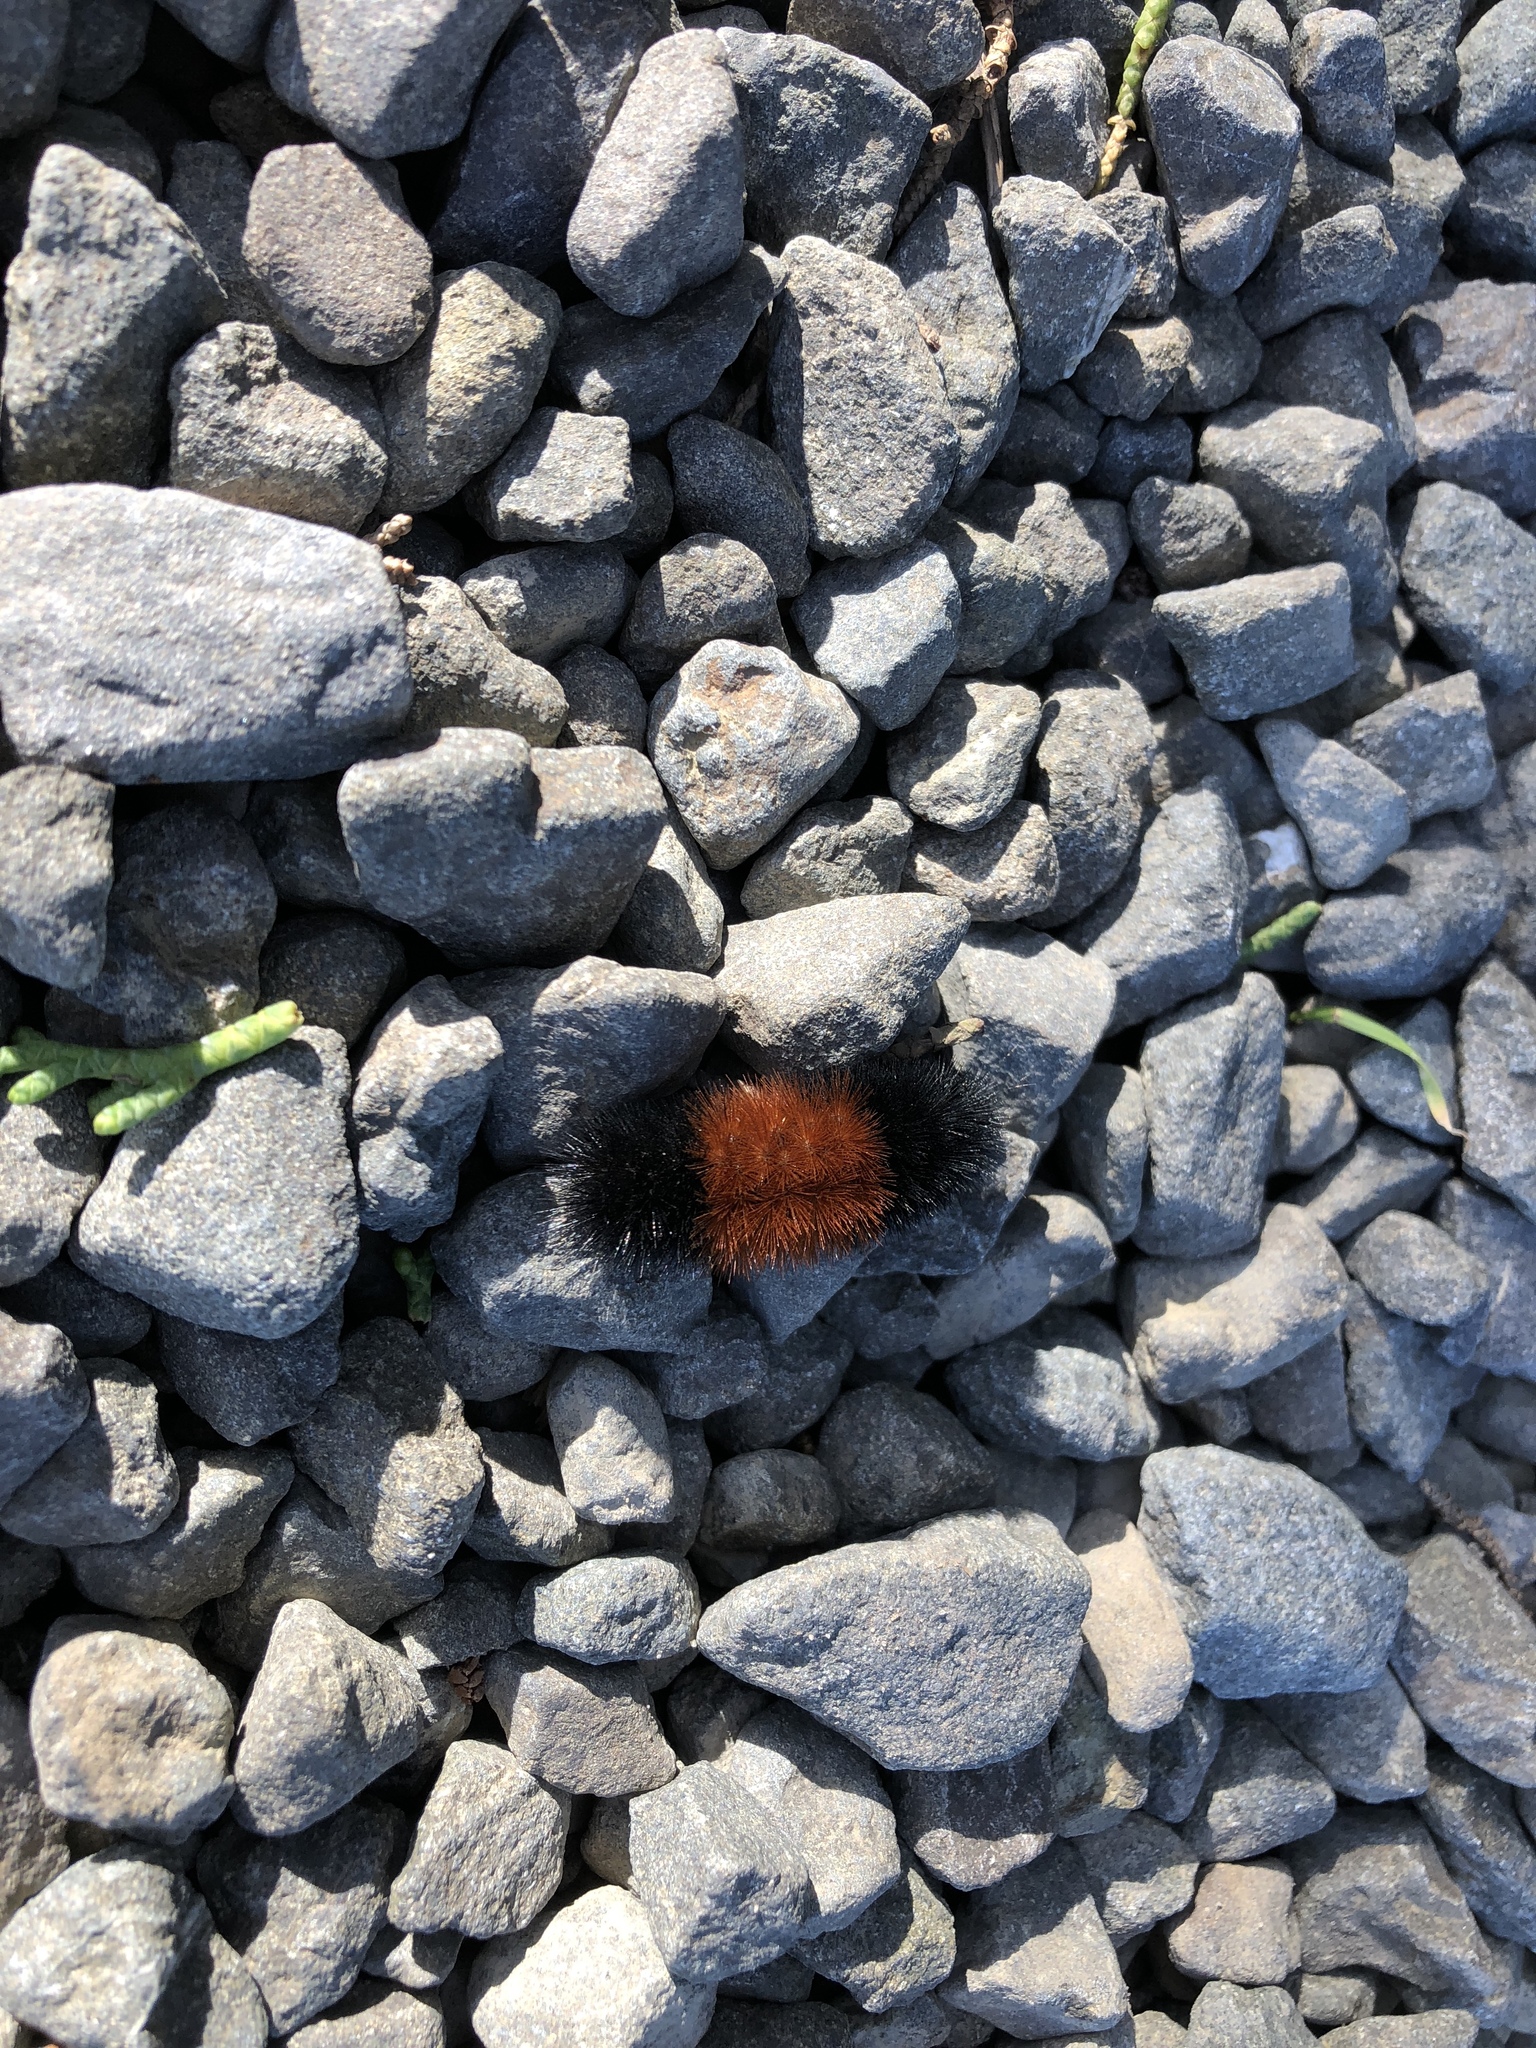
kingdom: Animalia
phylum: Arthropoda
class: Insecta
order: Lepidoptera
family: Erebidae
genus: Pyrrharctia
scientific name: Pyrrharctia isabella
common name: Isabella tiger moth
